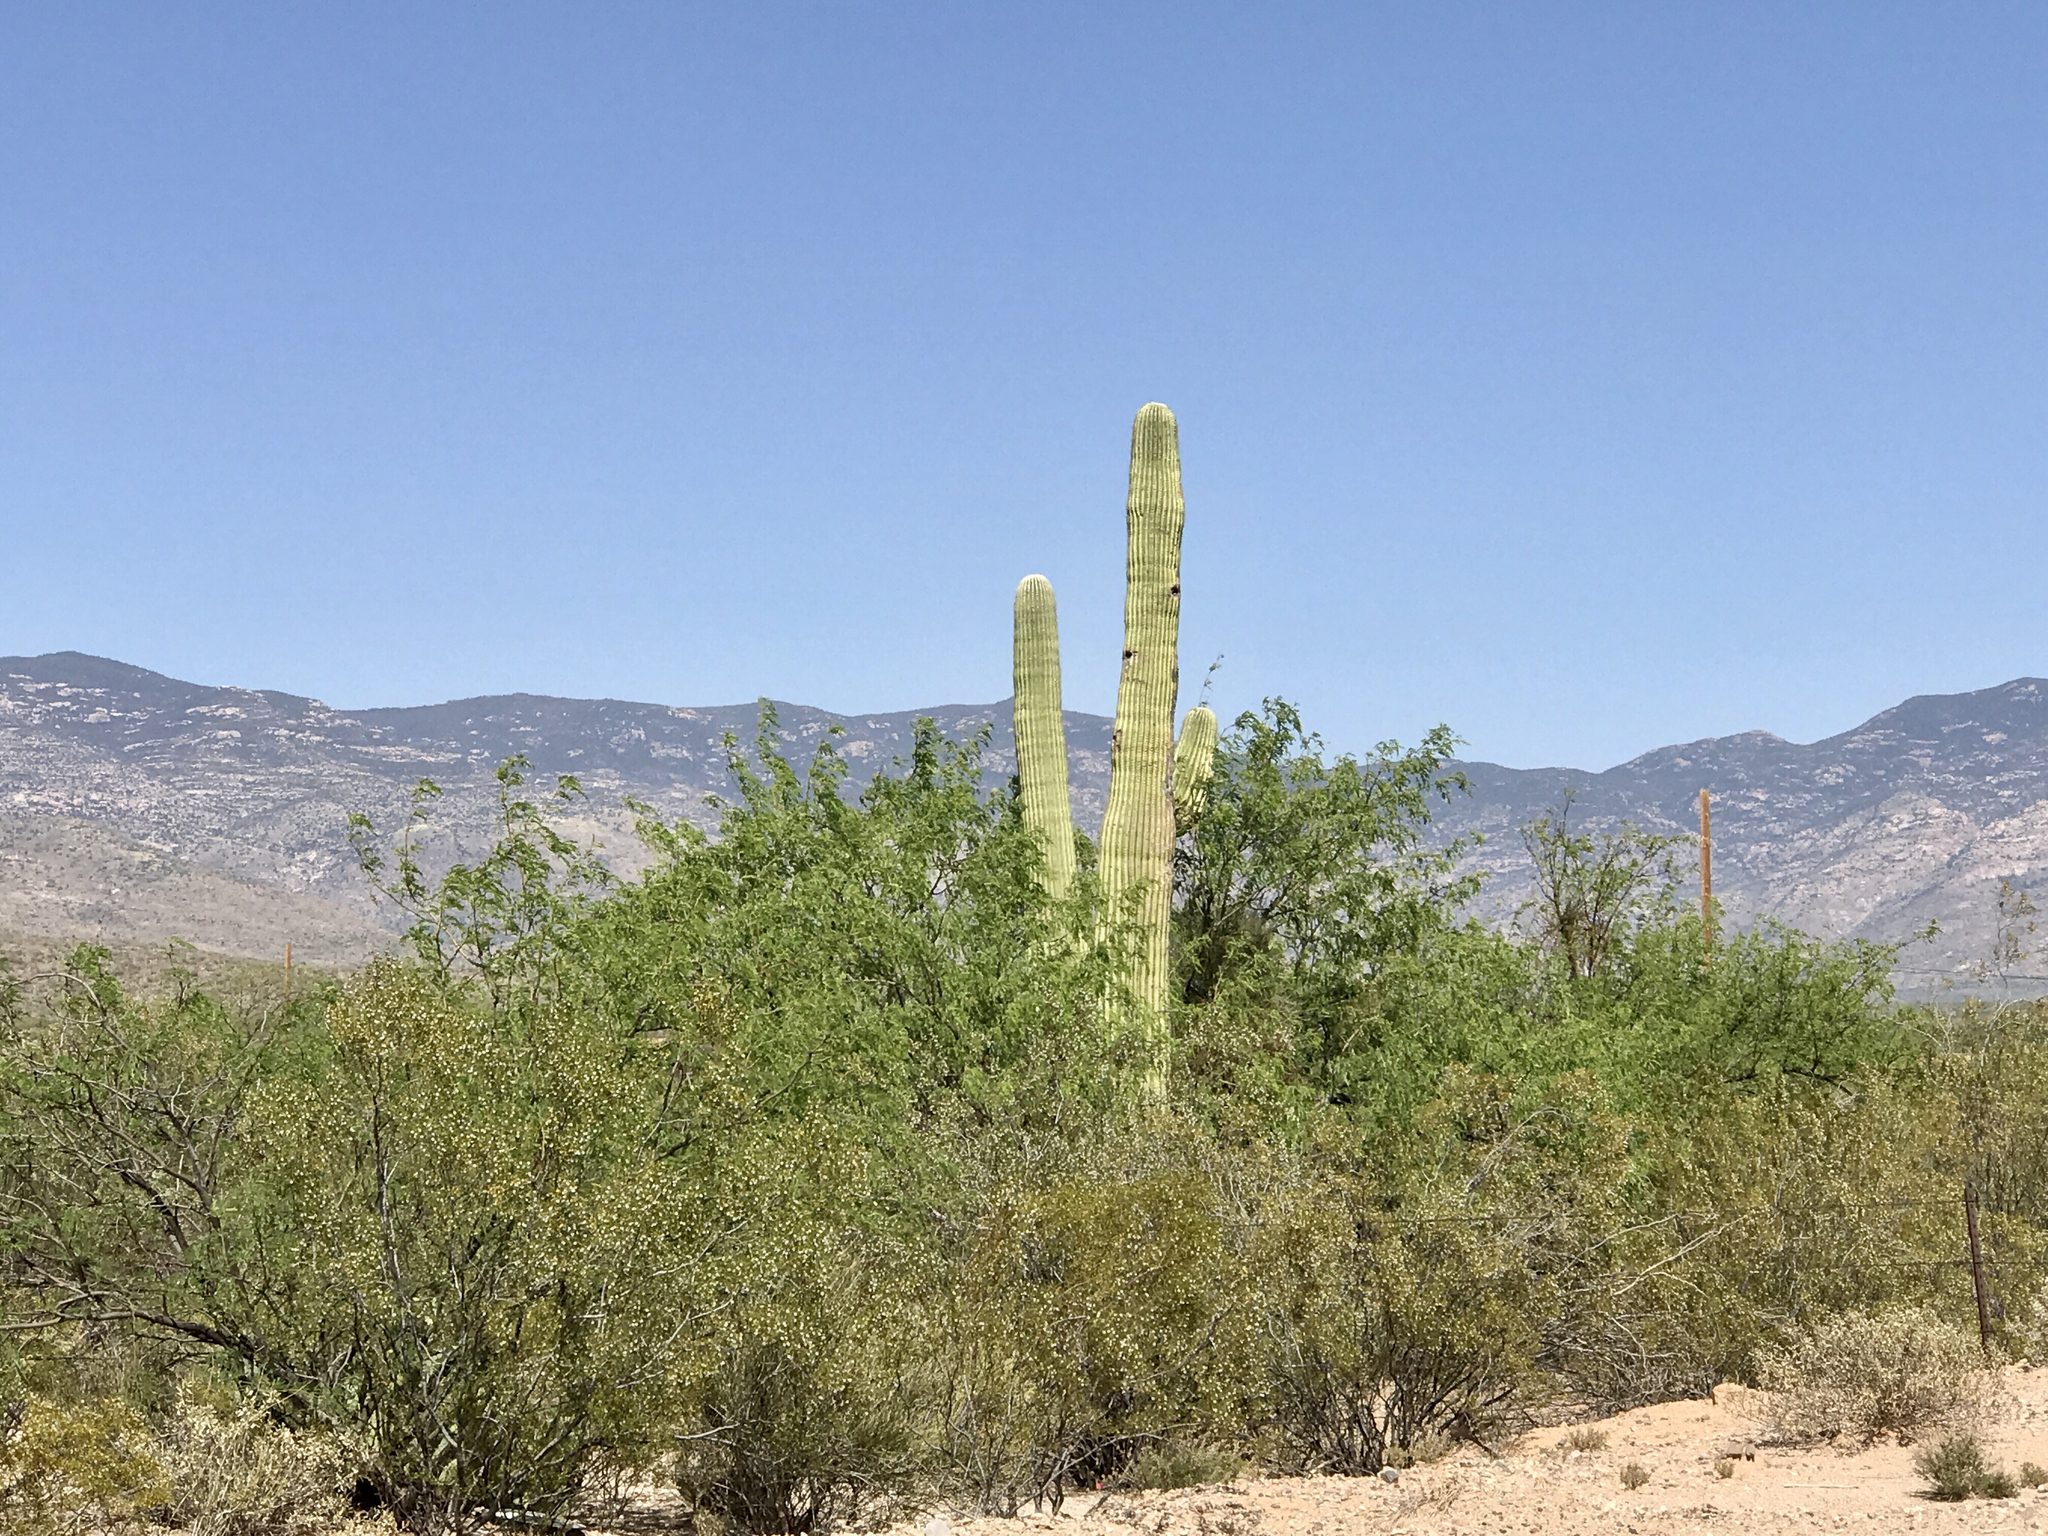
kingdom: Plantae
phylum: Tracheophyta
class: Magnoliopsida
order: Caryophyllales
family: Cactaceae
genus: Carnegiea
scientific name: Carnegiea gigantea
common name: Saguaro
